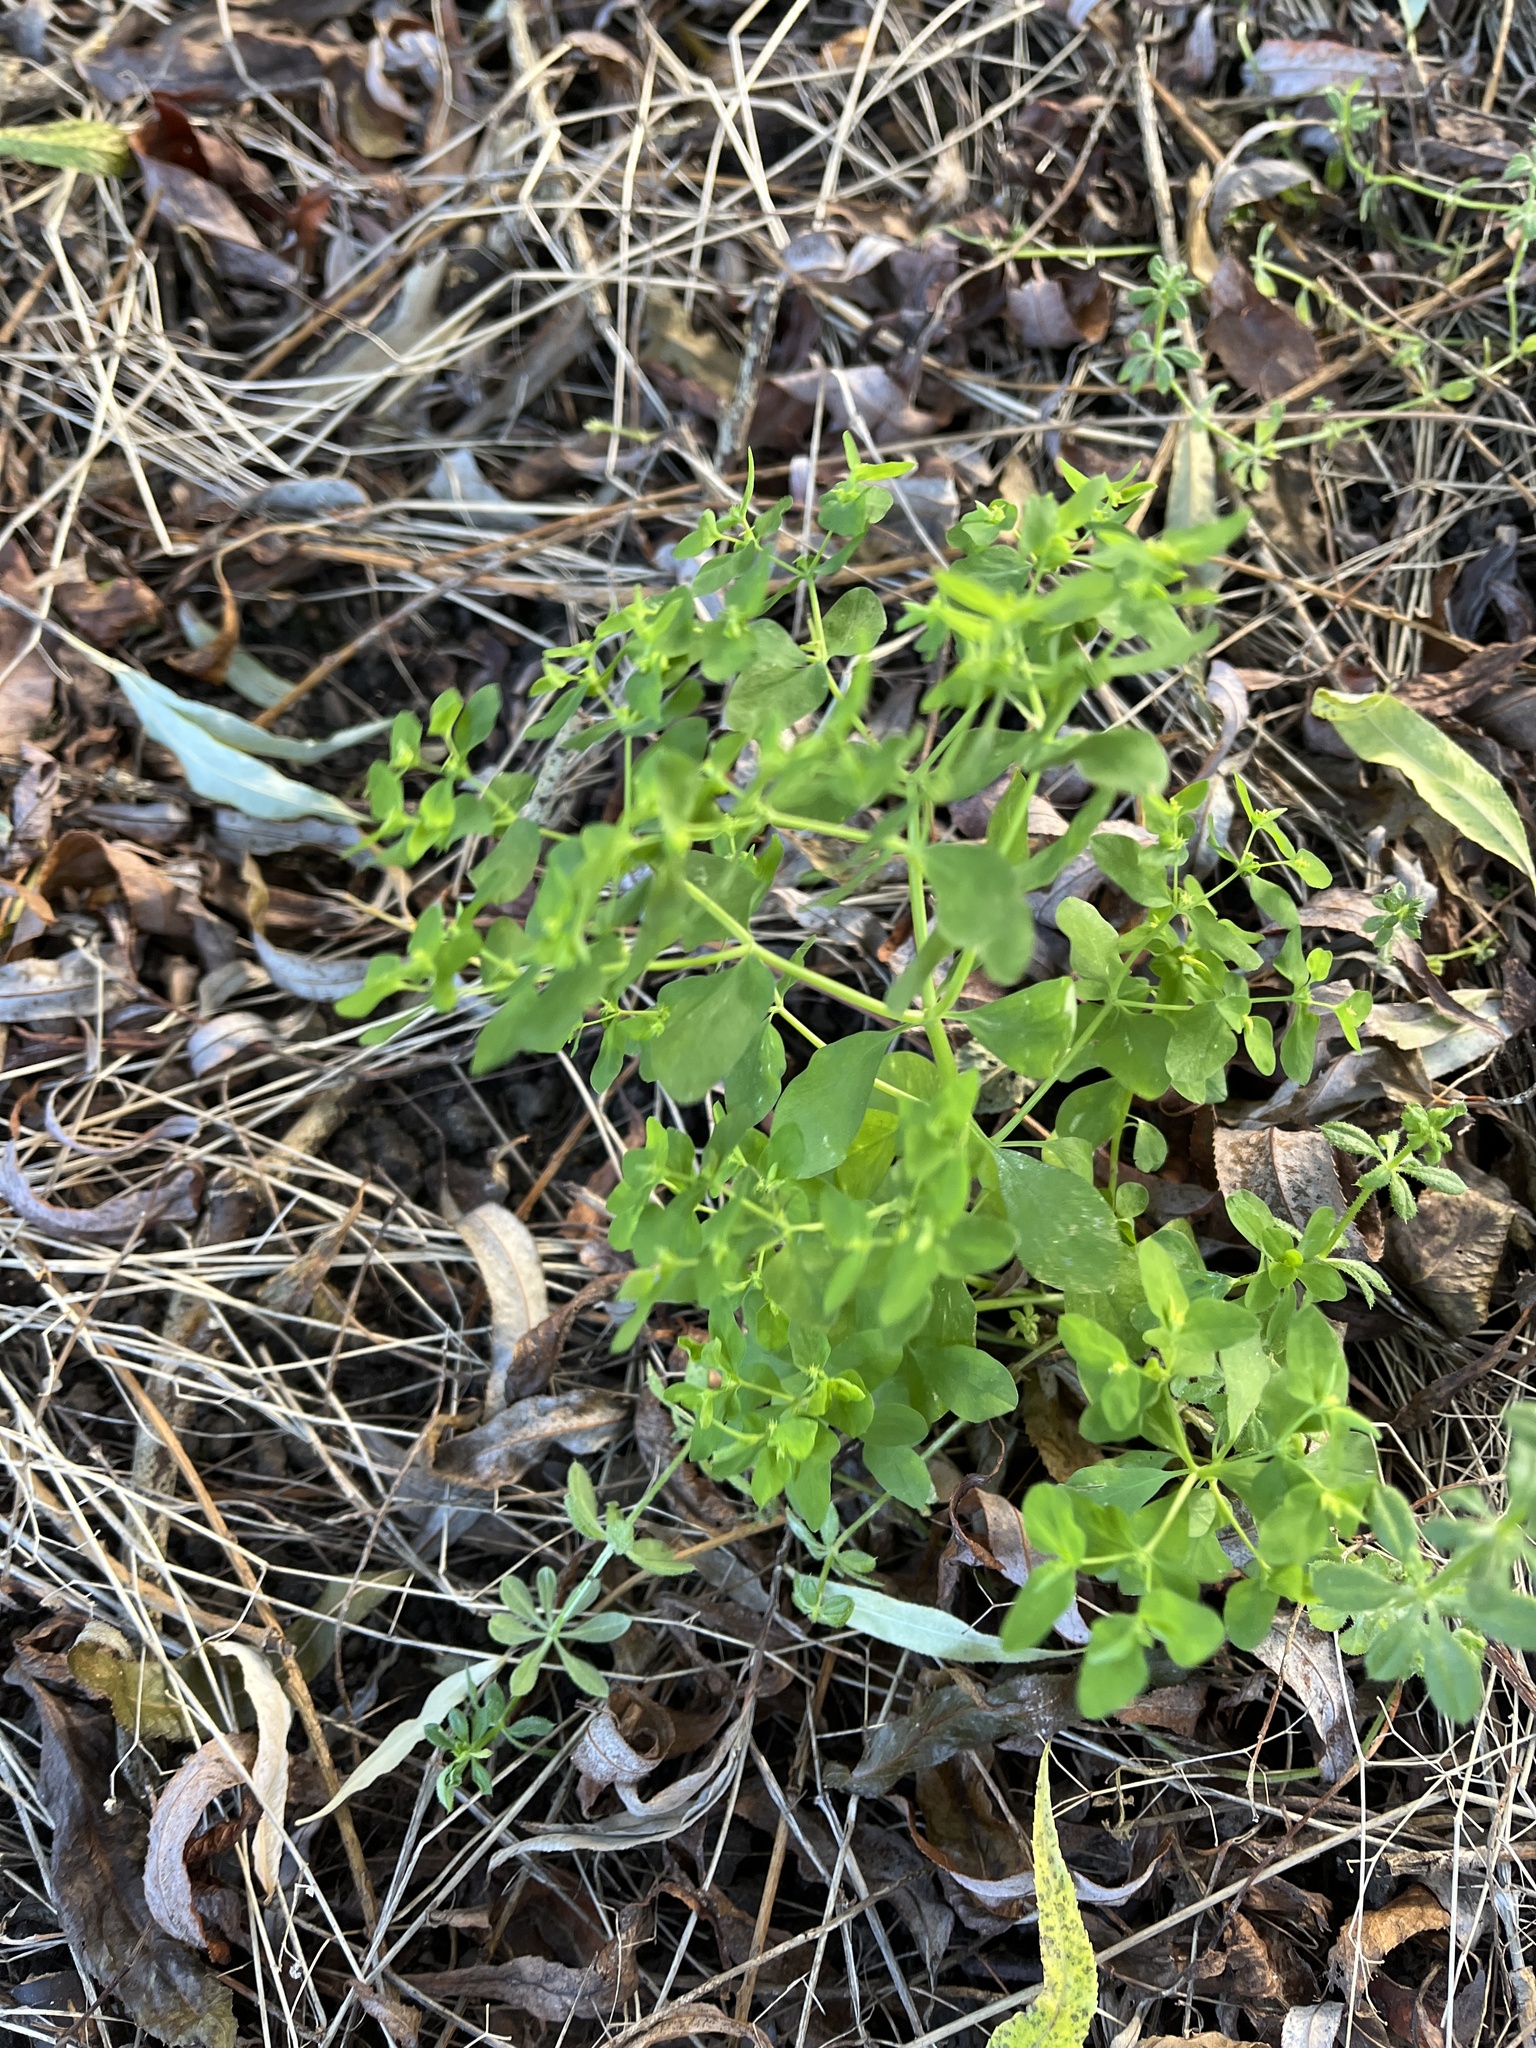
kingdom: Plantae
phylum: Tracheophyta
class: Magnoliopsida
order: Malpighiales
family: Euphorbiaceae
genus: Euphorbia
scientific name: Euphorbia peplus
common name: Petty spurge
